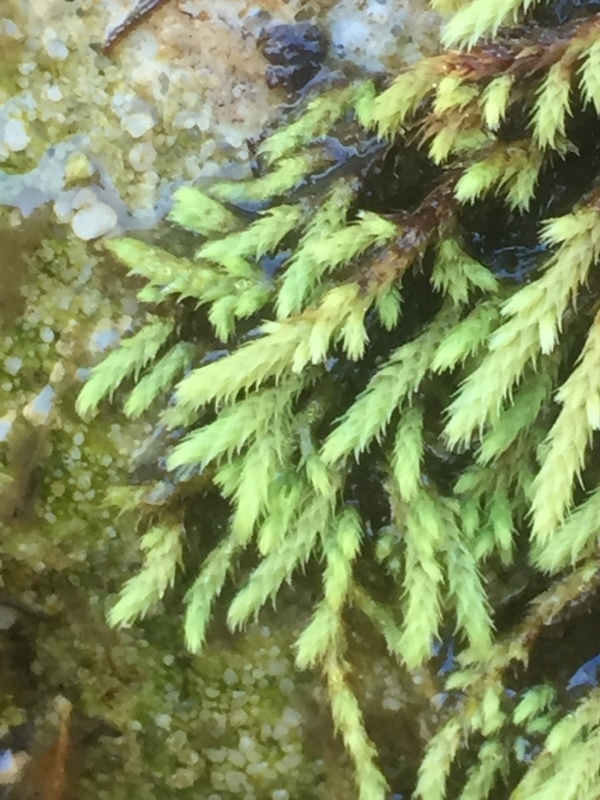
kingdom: Plantae
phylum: Bryophyta
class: Bryopsida
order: Bartramiales
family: Bartramiaceae
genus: Philonotis
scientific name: Philonotis fontana
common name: Fountain apple-moss
